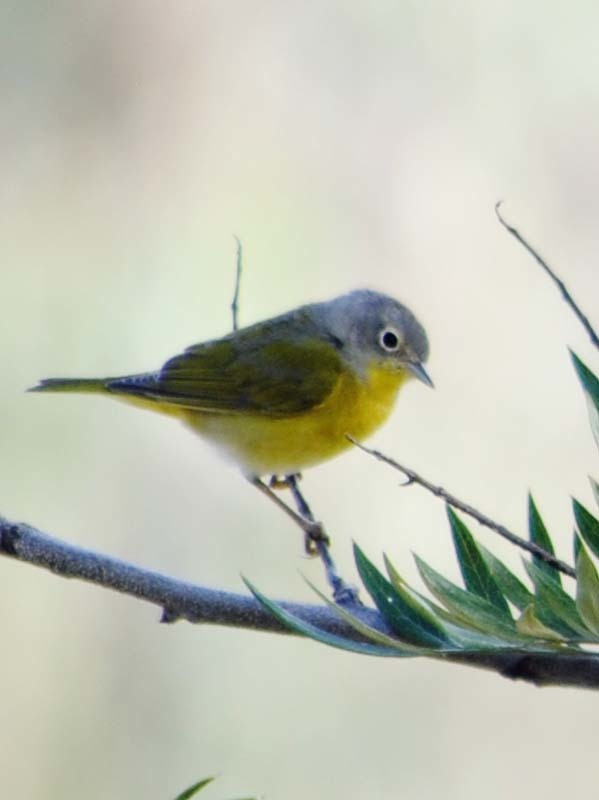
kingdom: Animalia
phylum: Chordata
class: Aves
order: Passeriformes
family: Parulidae
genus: Leiothlypis
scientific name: Leiothlypis ruficapilla
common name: Nashville warbler
